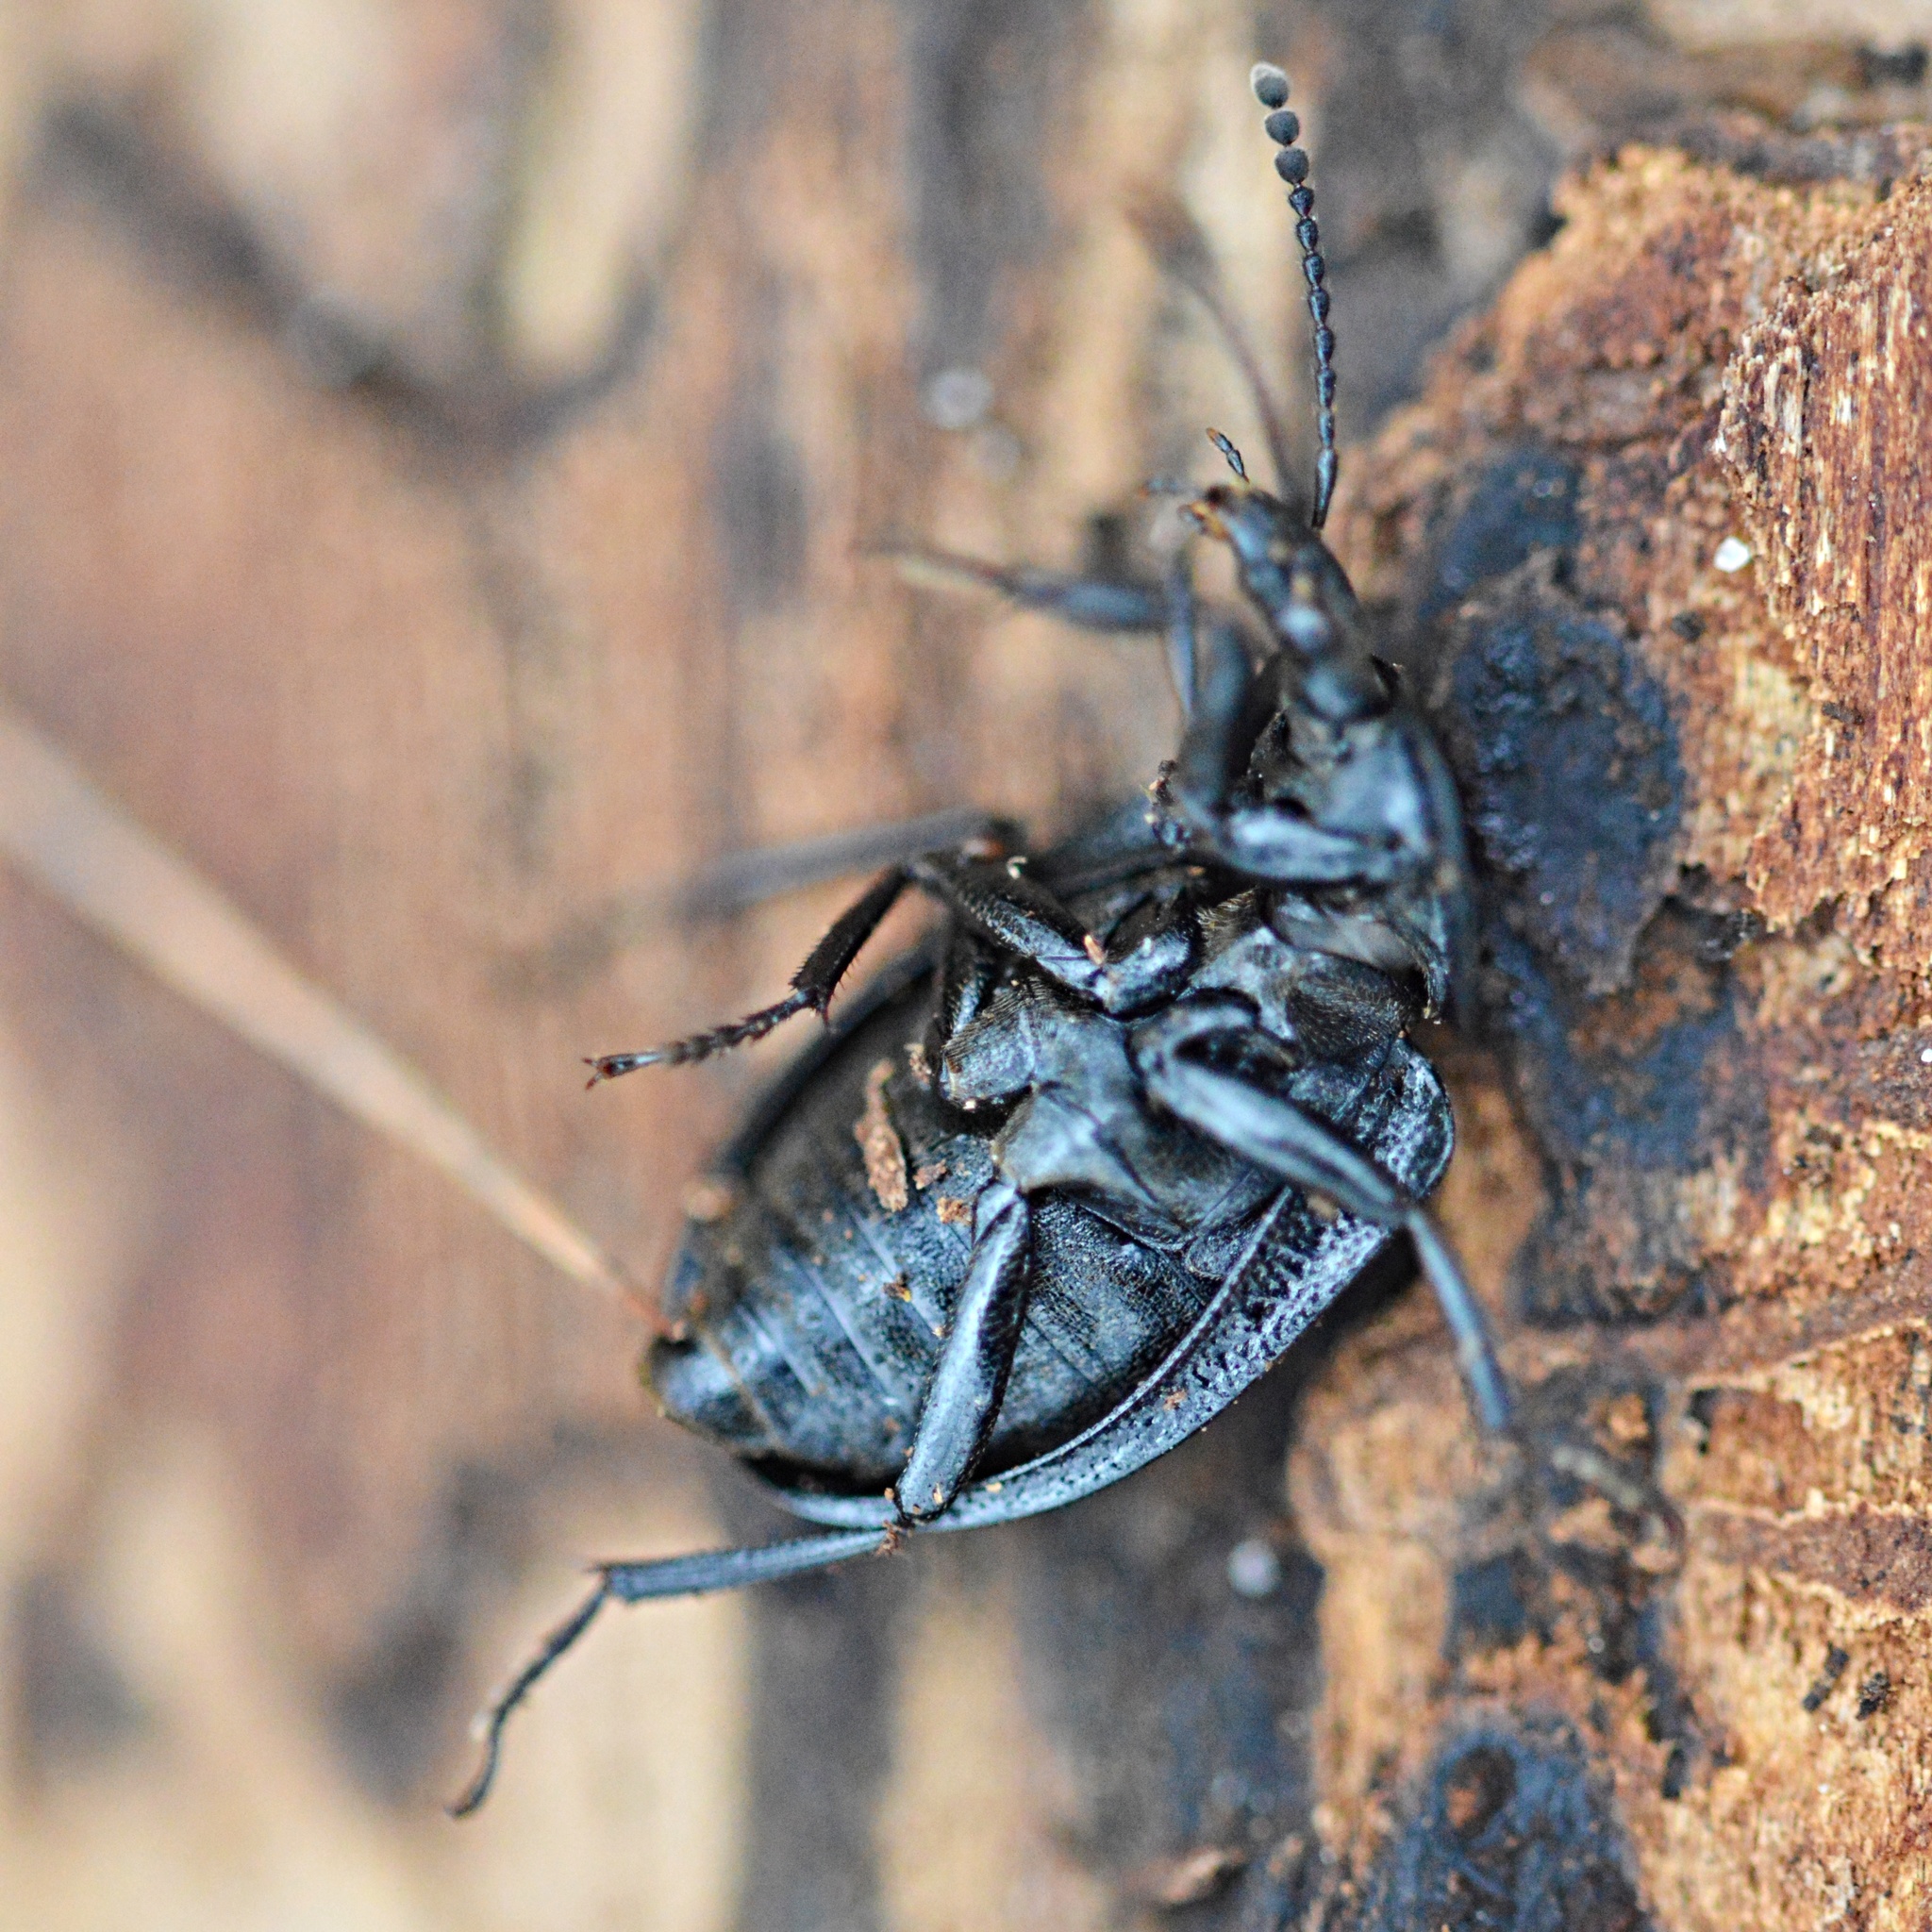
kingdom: Animalia
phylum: Arthropoda
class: Insecta
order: Coleoptera
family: Staphylinidae
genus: Silpha
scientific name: Silpha atrata
